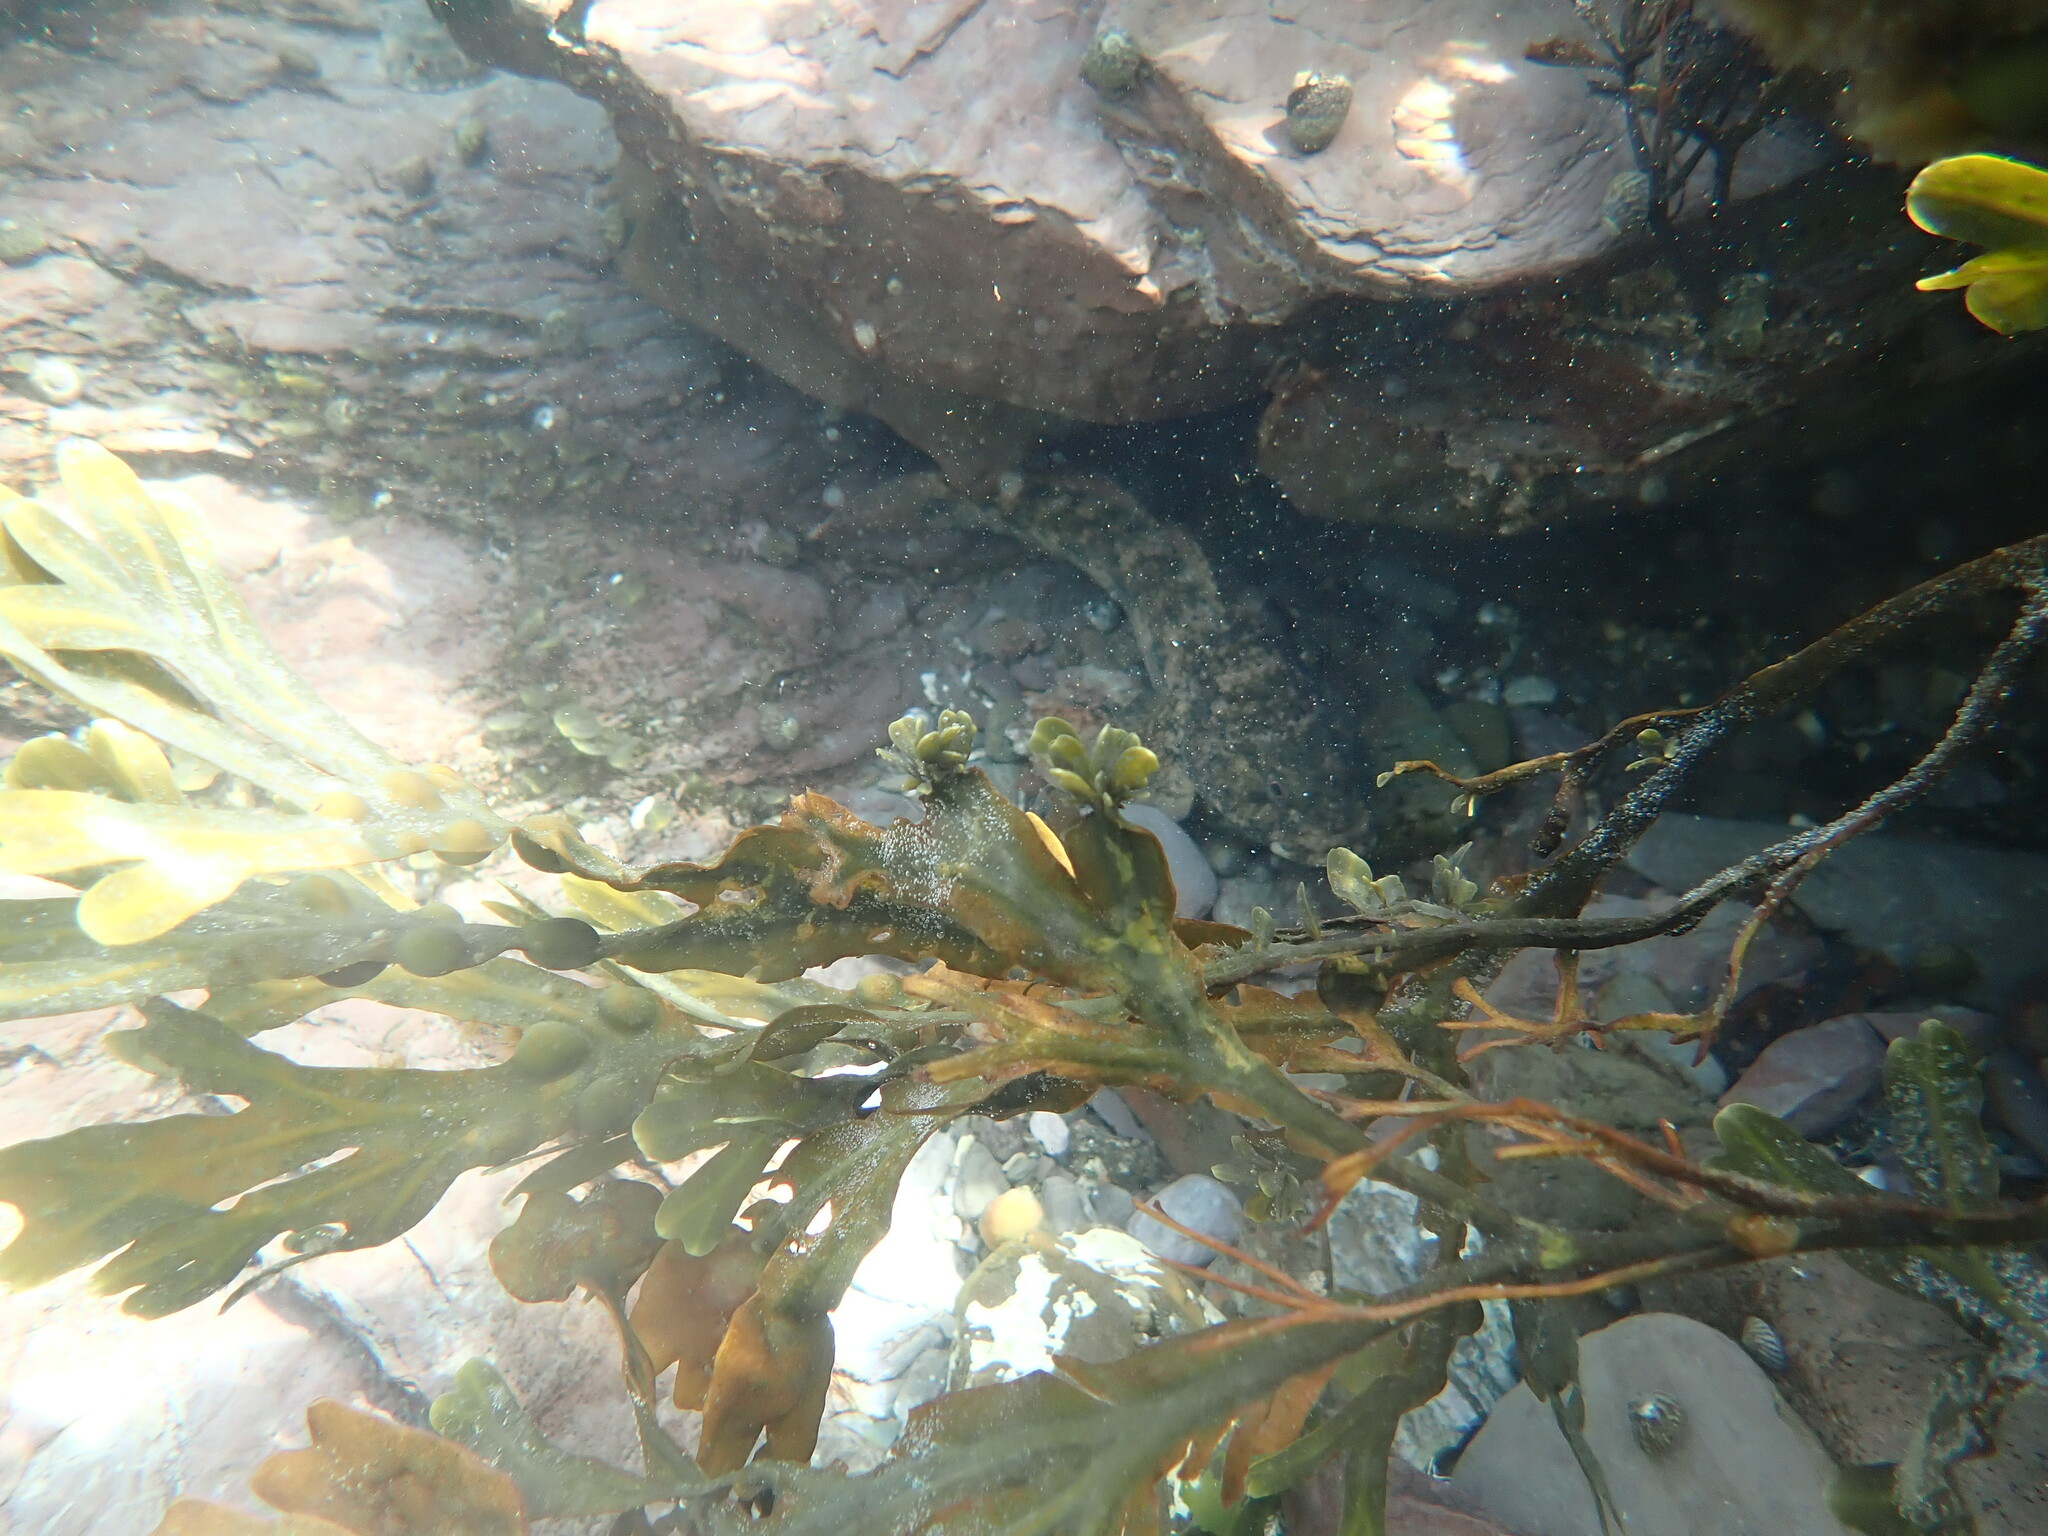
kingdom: Animalia
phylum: Chordata
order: Perciformes
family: Gobiidae
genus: Gobius
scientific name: Gobius cobitis
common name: Giant goby
